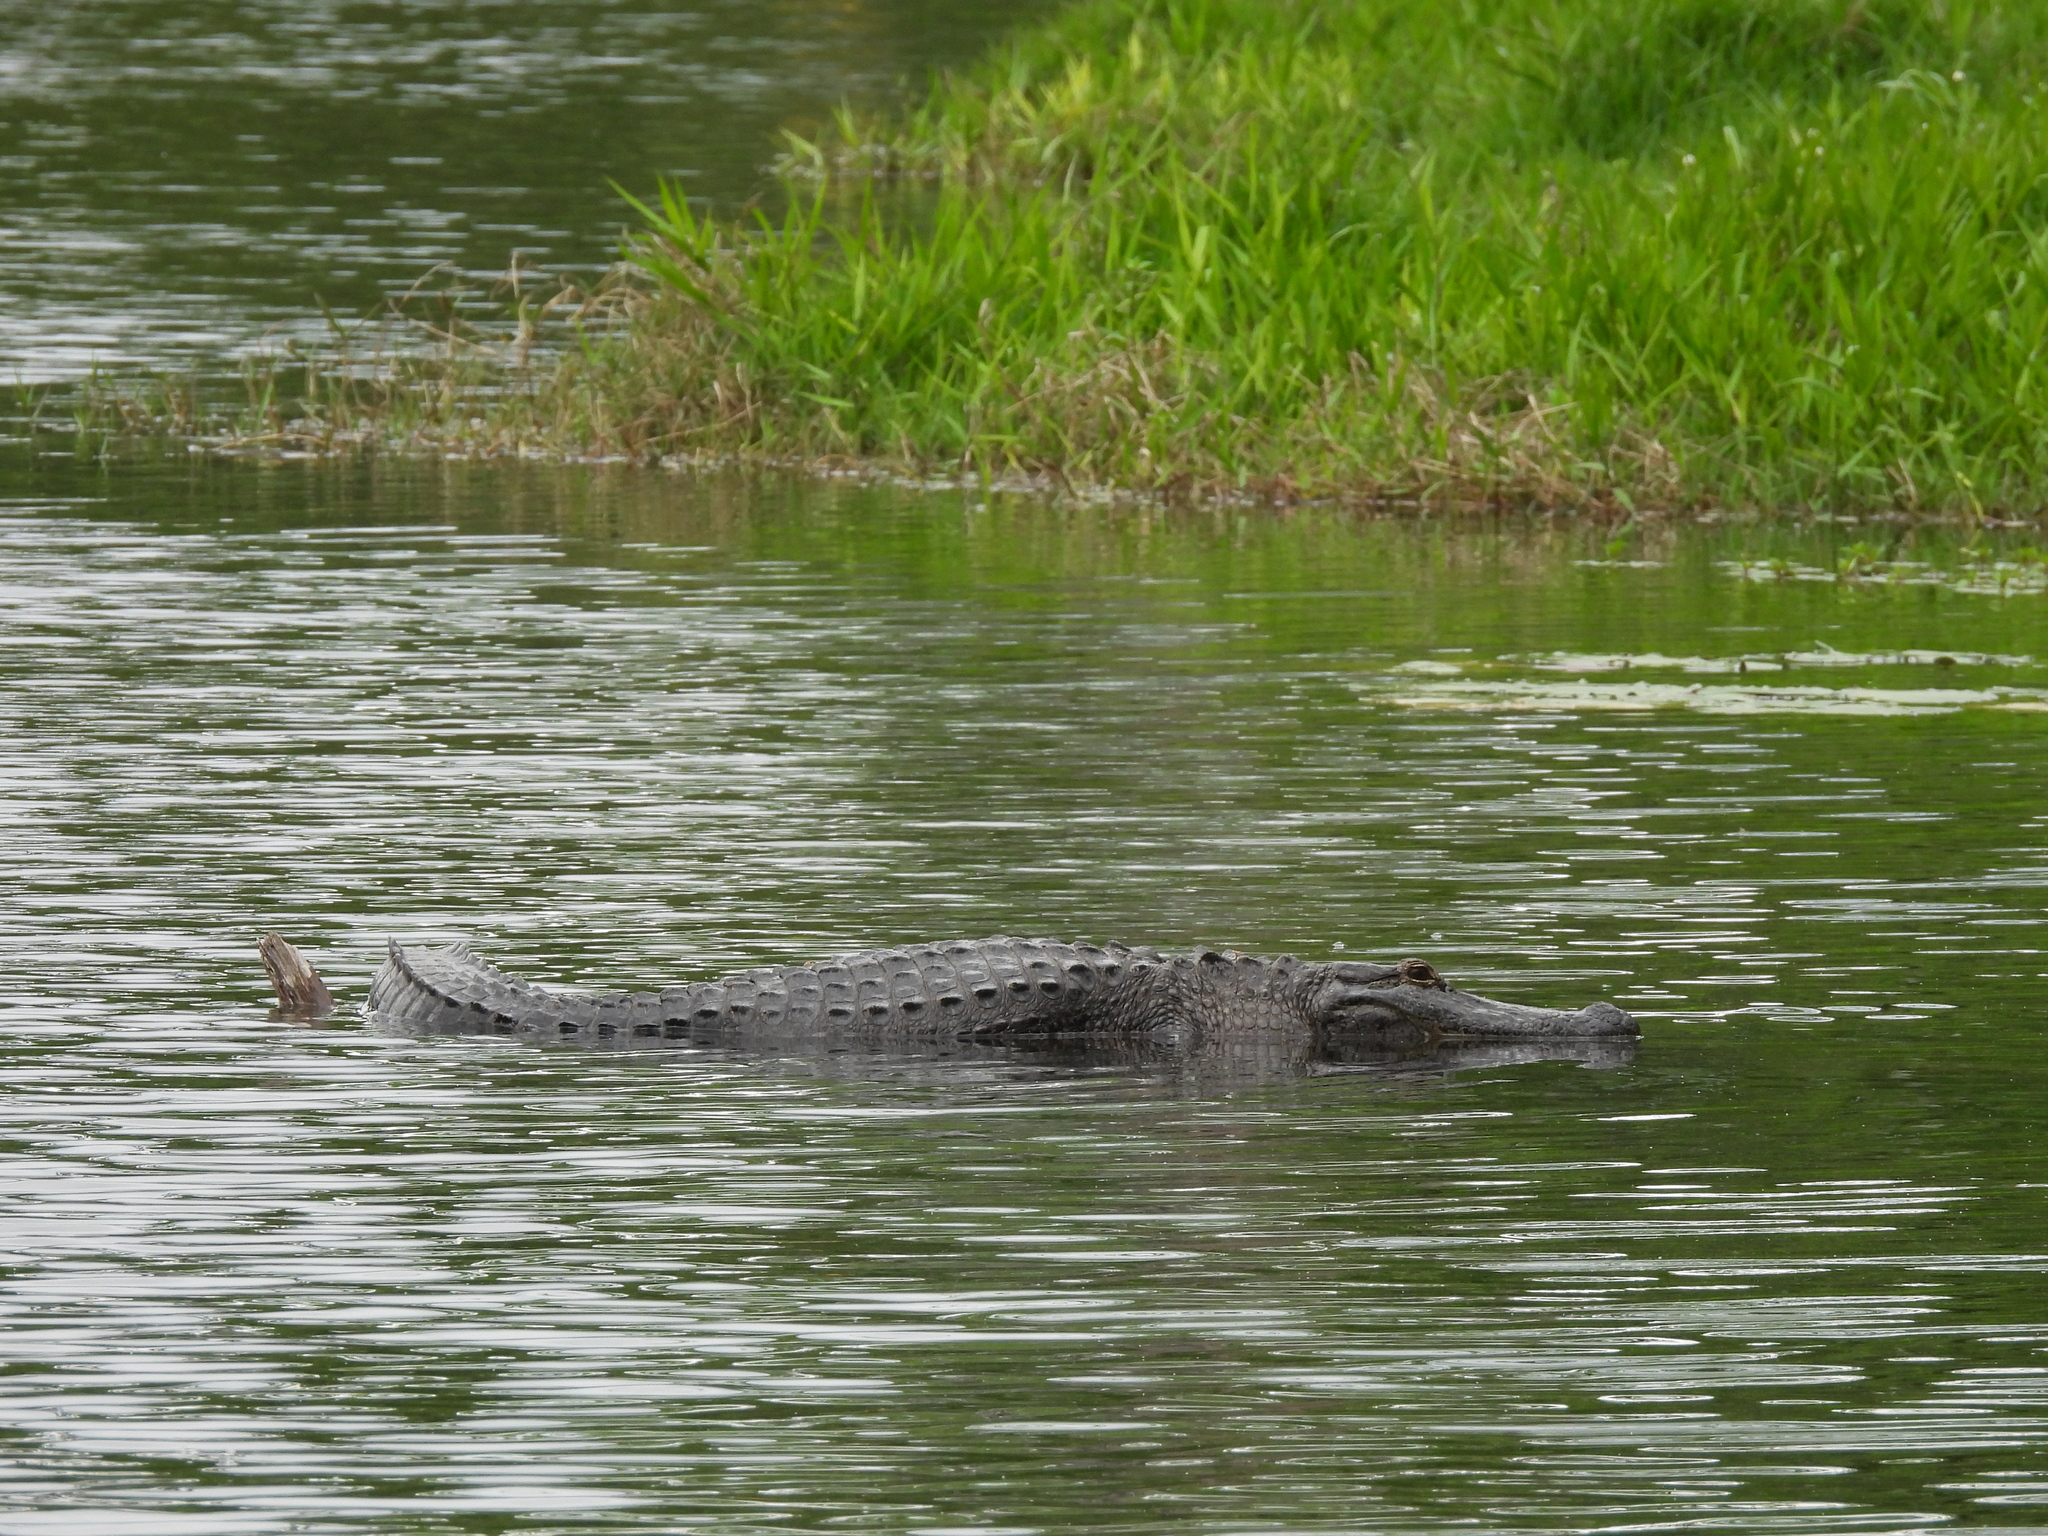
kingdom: Animalia
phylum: Chordata
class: Crocodylia
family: Alligatoridae
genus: Alligator
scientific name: Alligator mississippiensis
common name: American alligator
